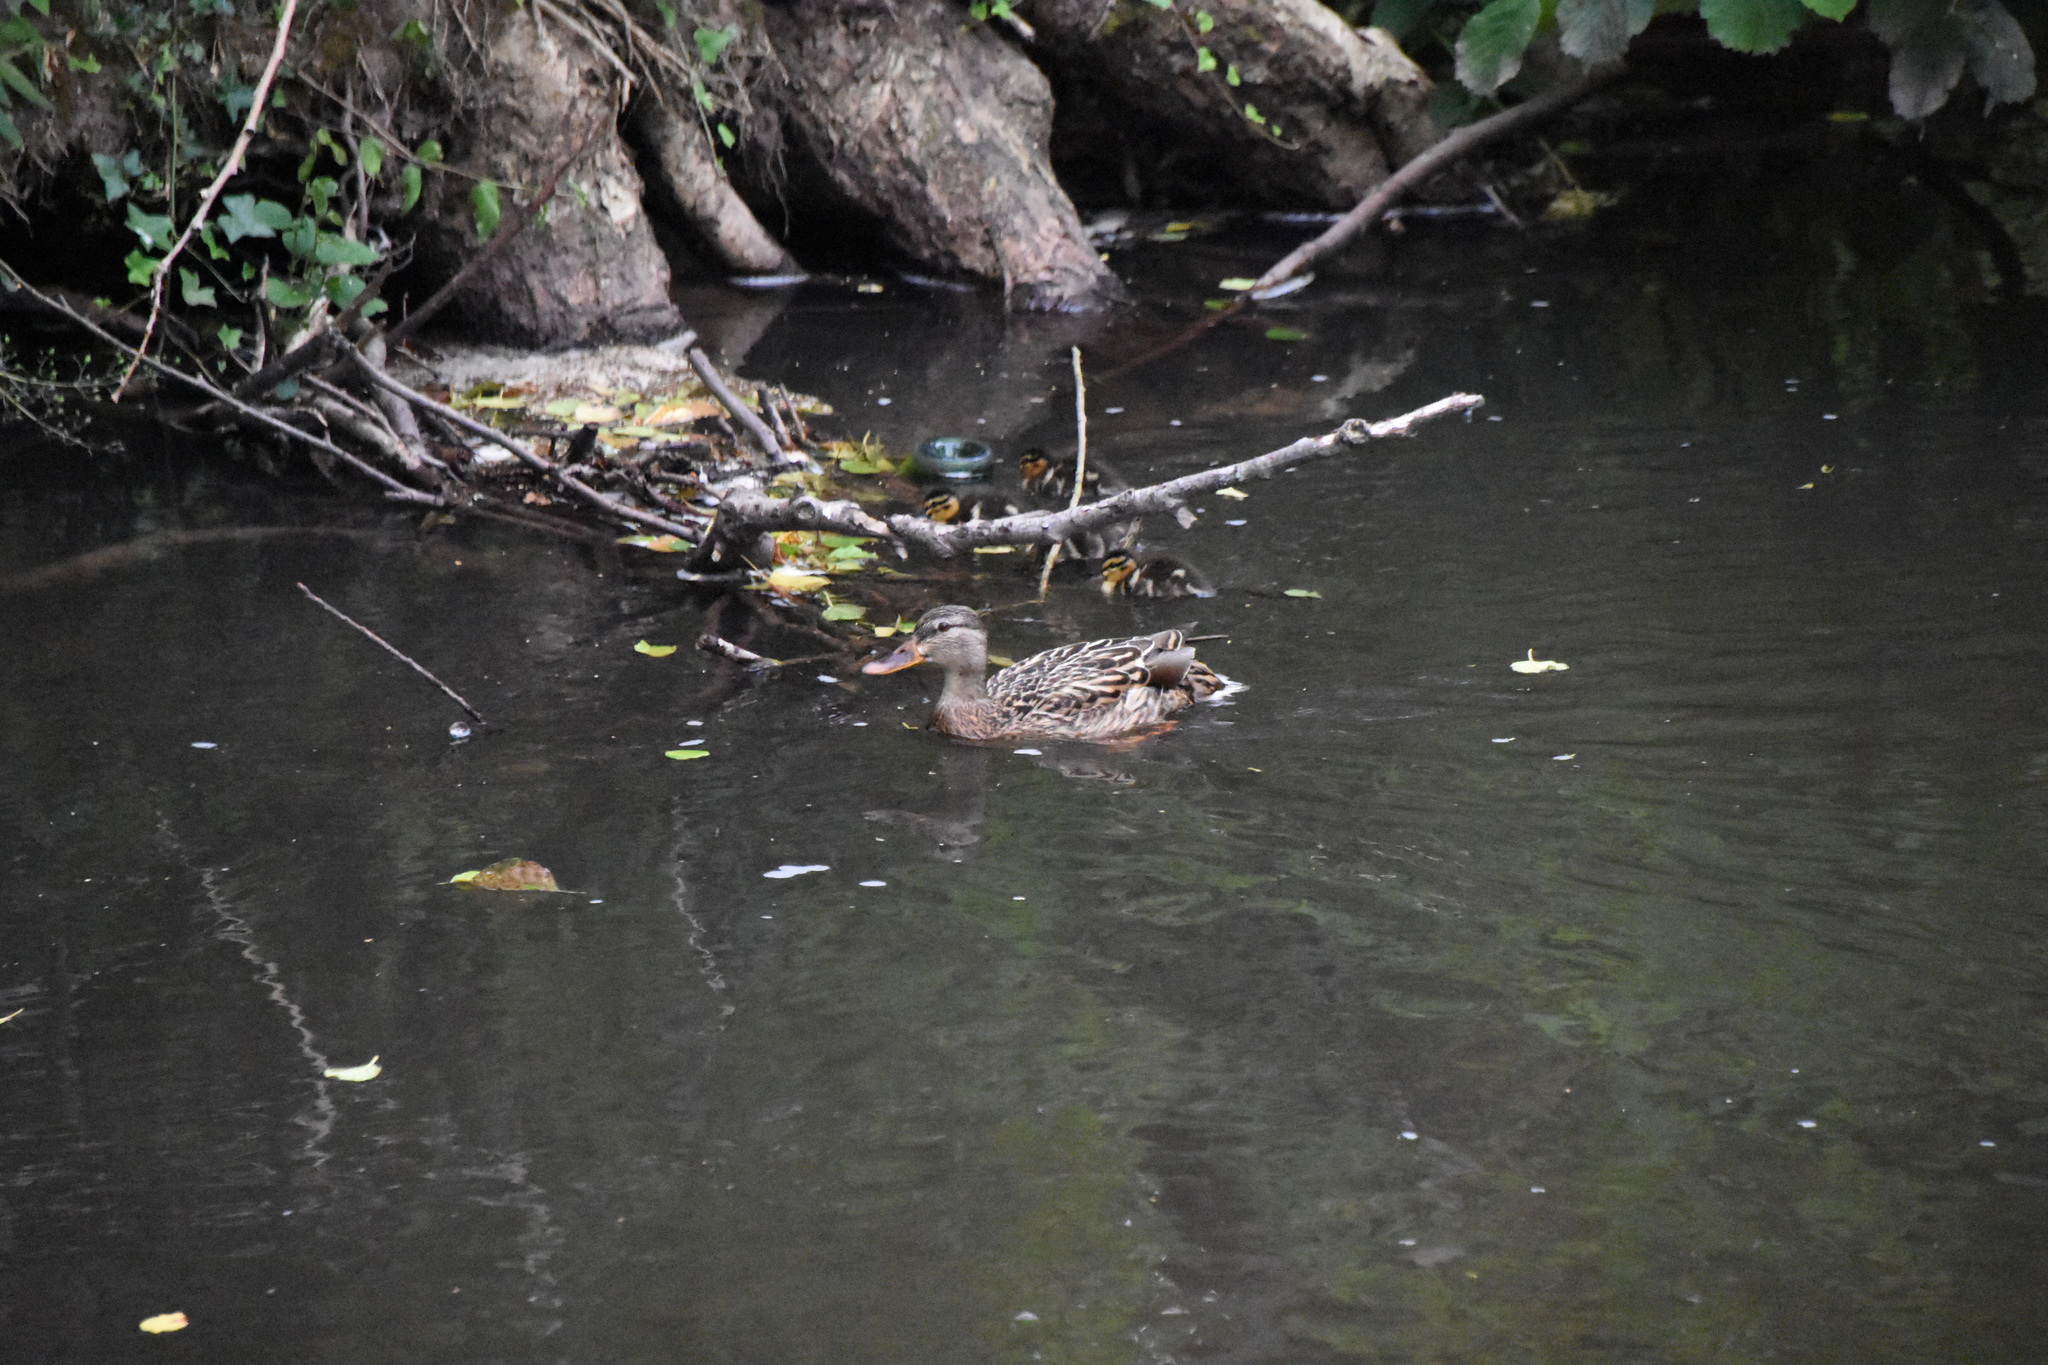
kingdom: Animalia
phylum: Chordata
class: Aves
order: Anseriformes
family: Anatidae
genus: Anas
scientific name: Anas platyrhynchos
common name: Mallard
